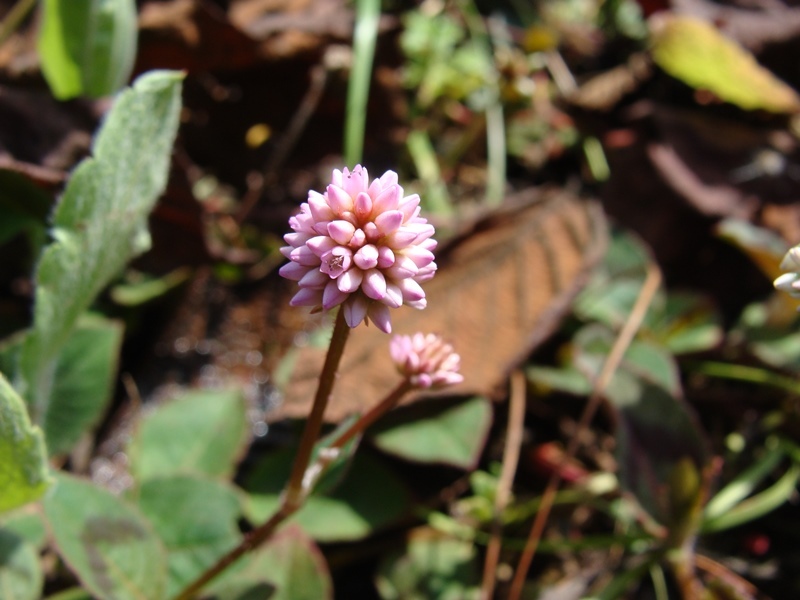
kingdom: Plantae
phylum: Tracheophyta
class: Magnoliopsida
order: Caryophyllales
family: Polygonaceae
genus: Persicaria
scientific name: Persicaria capitata
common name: Pinkhead smartweed
